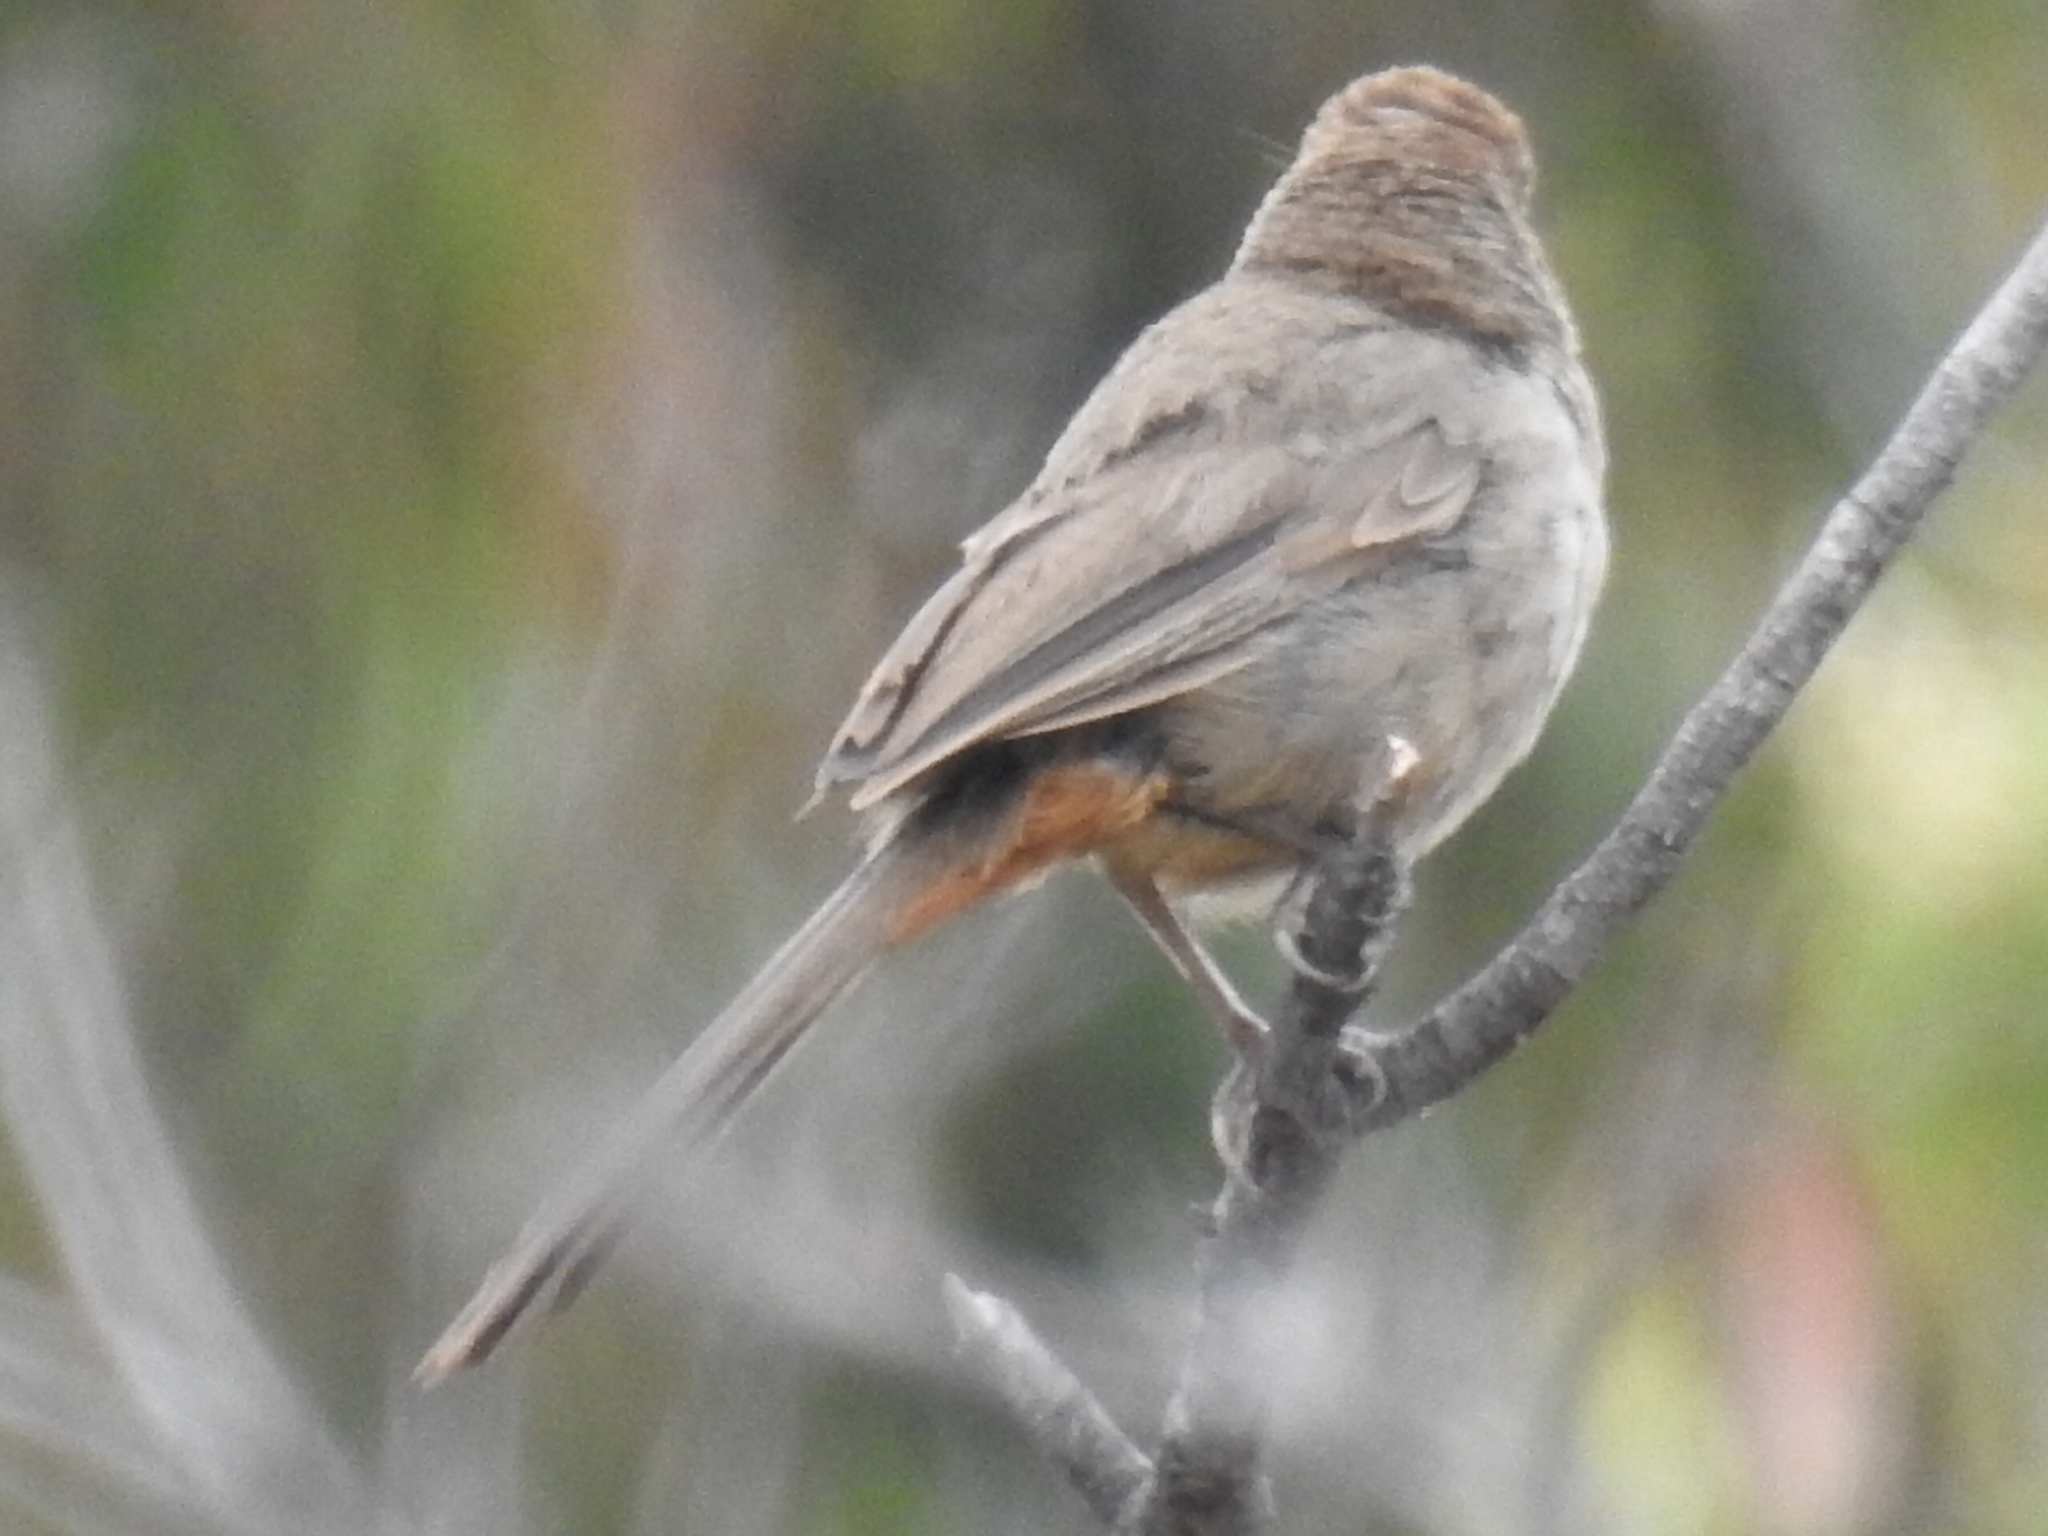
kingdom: Animalia
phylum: Chordata
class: Aves
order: Passeriformes
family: Passerellidae
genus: Melozone
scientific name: Melozone crissalis
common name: California towhee
